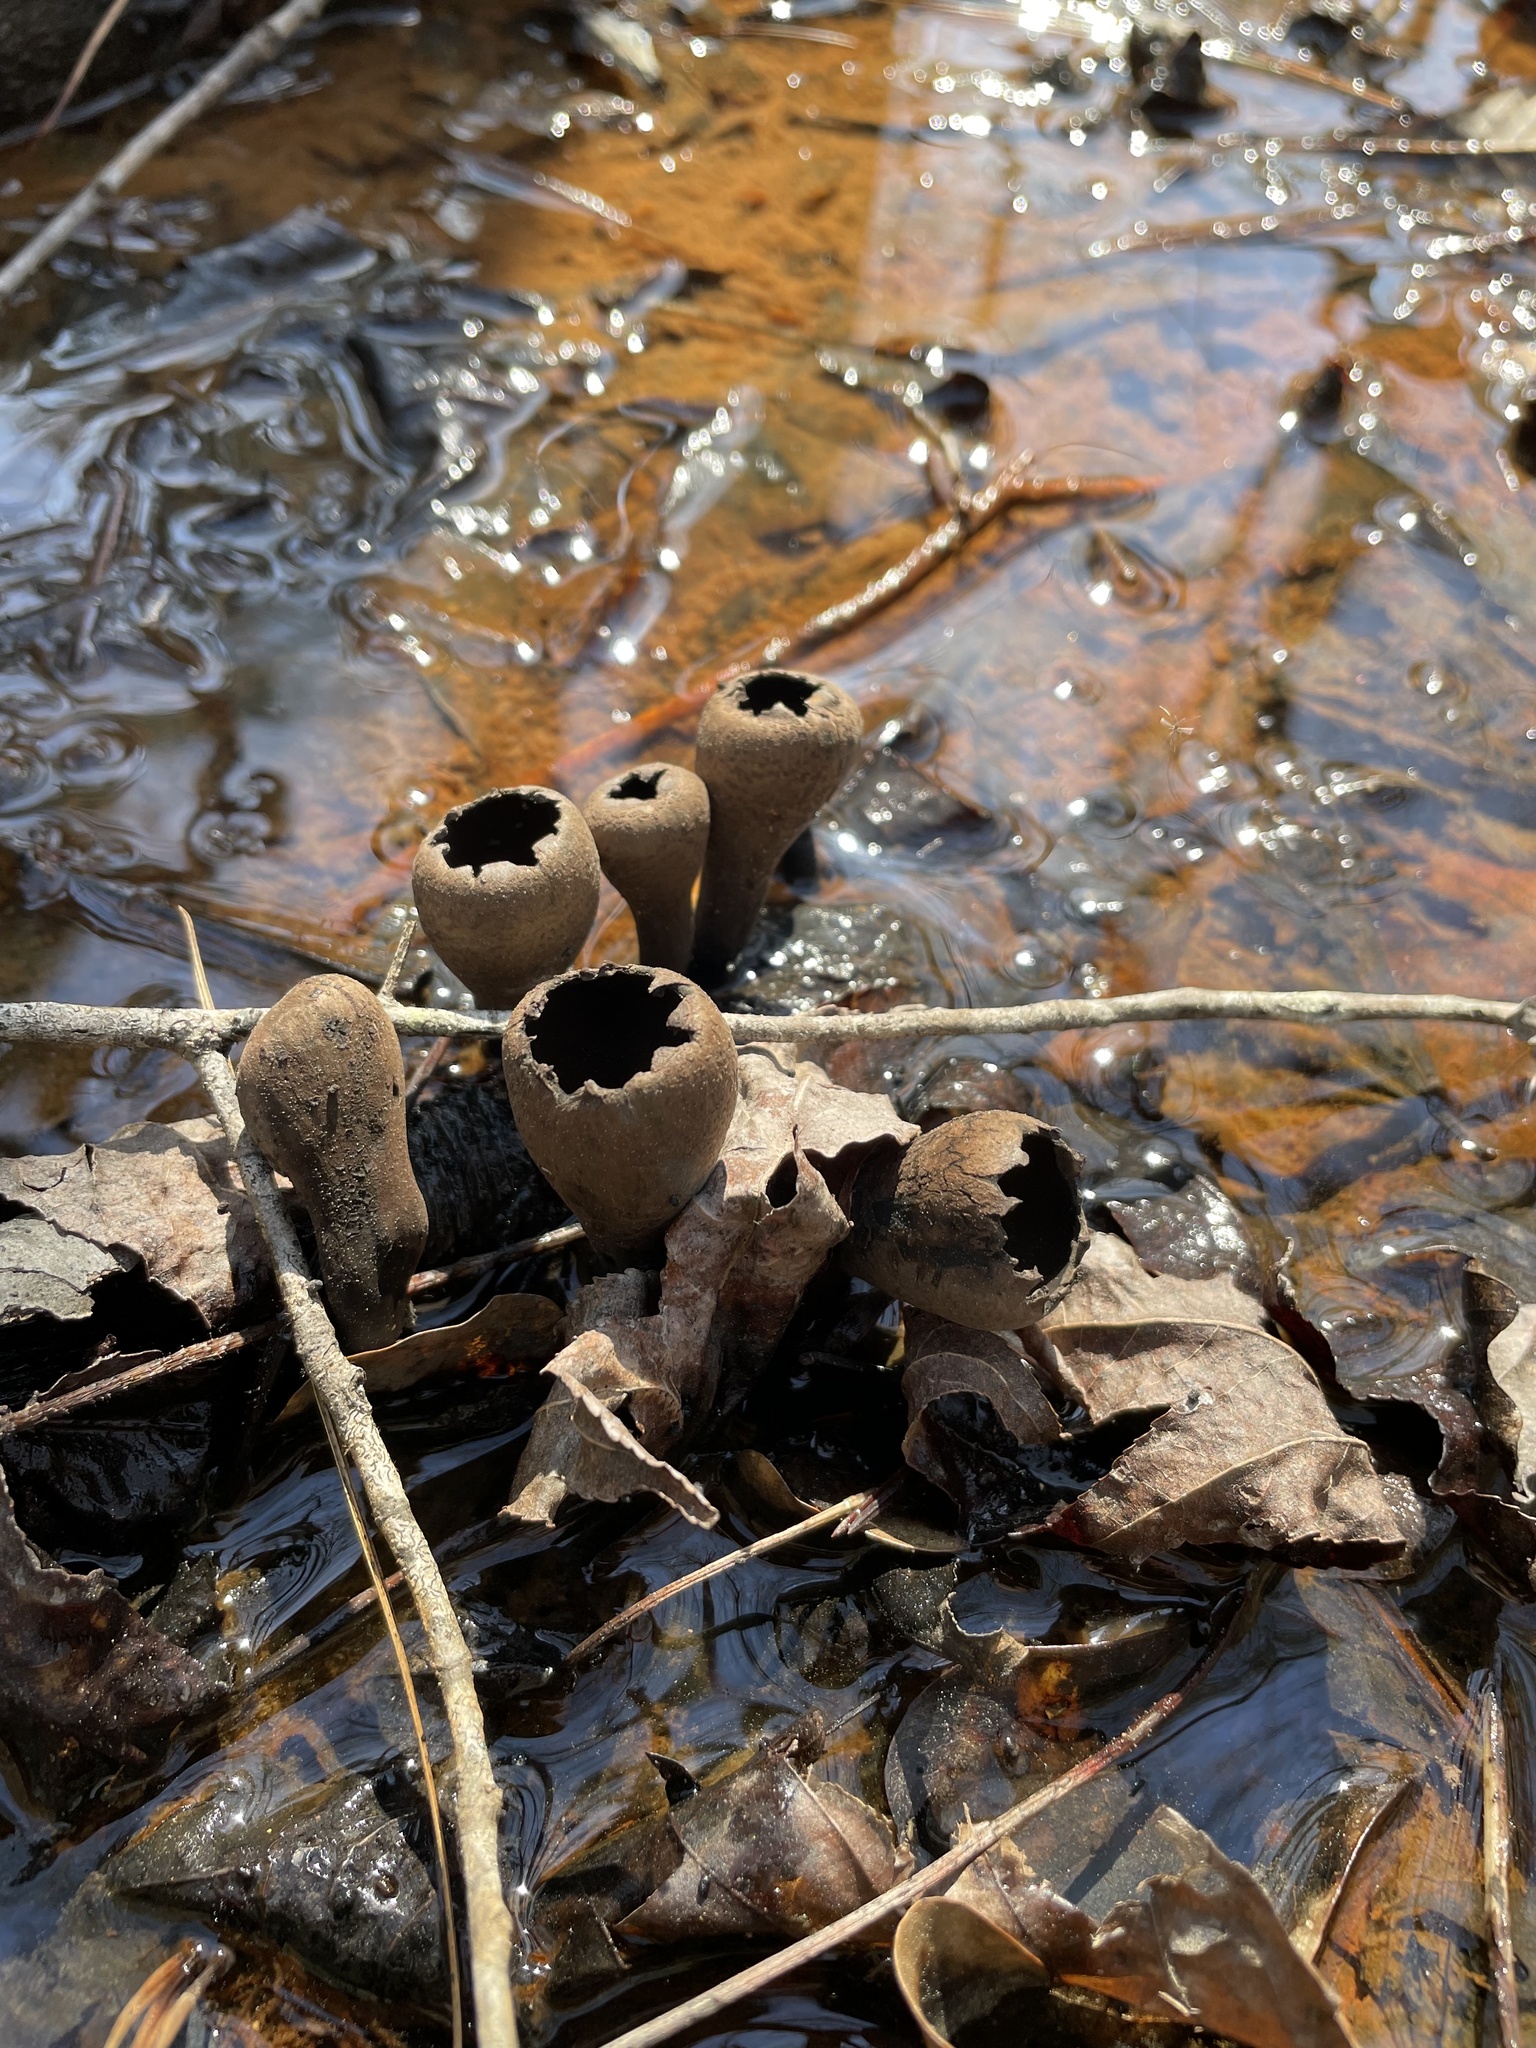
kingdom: Fungi
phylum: Ascomycota
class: Pezizomycetes
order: Pezizales
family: Sarcosomataceae
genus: Urnula
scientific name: Urnula craterium
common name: Devil's urn
